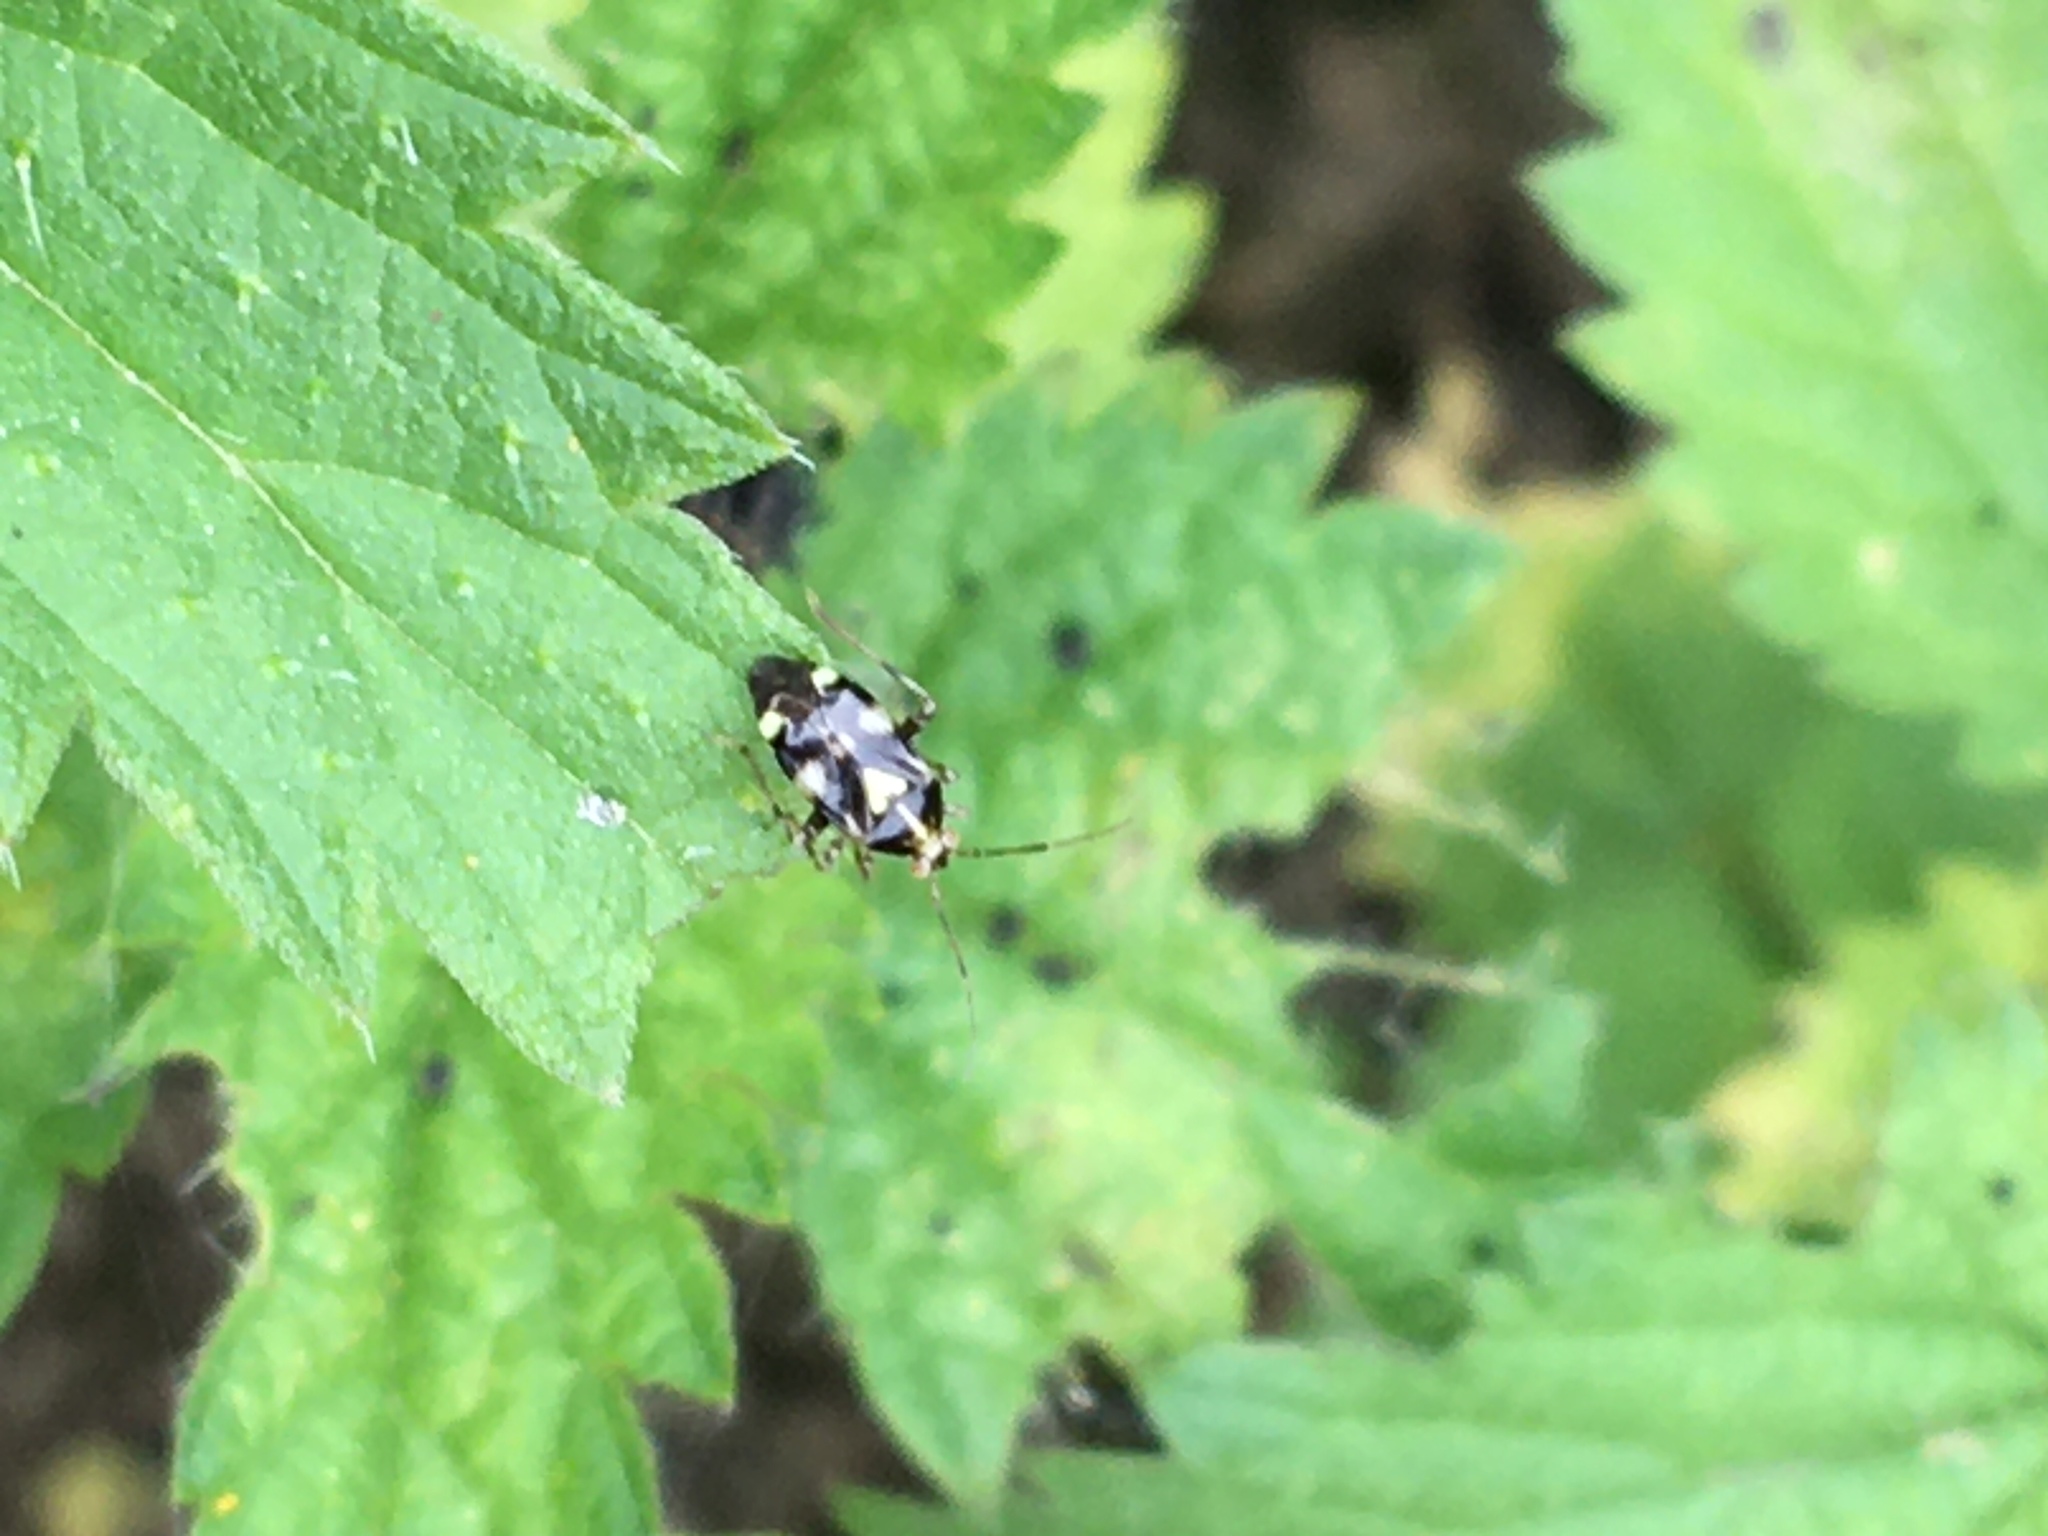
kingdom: Animalia
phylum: Arthropoda
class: Insecta
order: Hemiptera
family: Miridae
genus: Liocoris
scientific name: Liocoris tripustulatus
